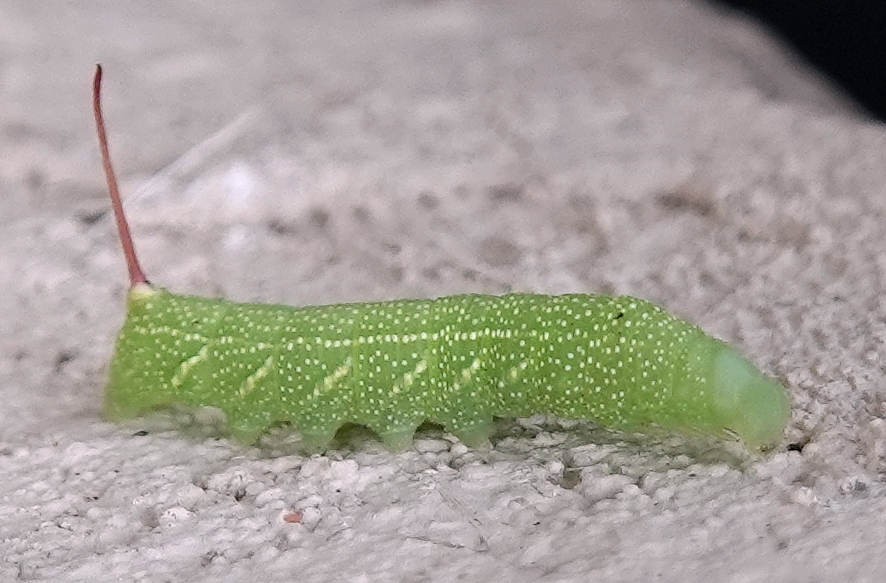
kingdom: Animalia
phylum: Arthropoda
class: Insecta
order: Lepidoptera
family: Sphingidae
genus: Eumorpha
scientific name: Eumorpha achemon
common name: Achemon sphinx
